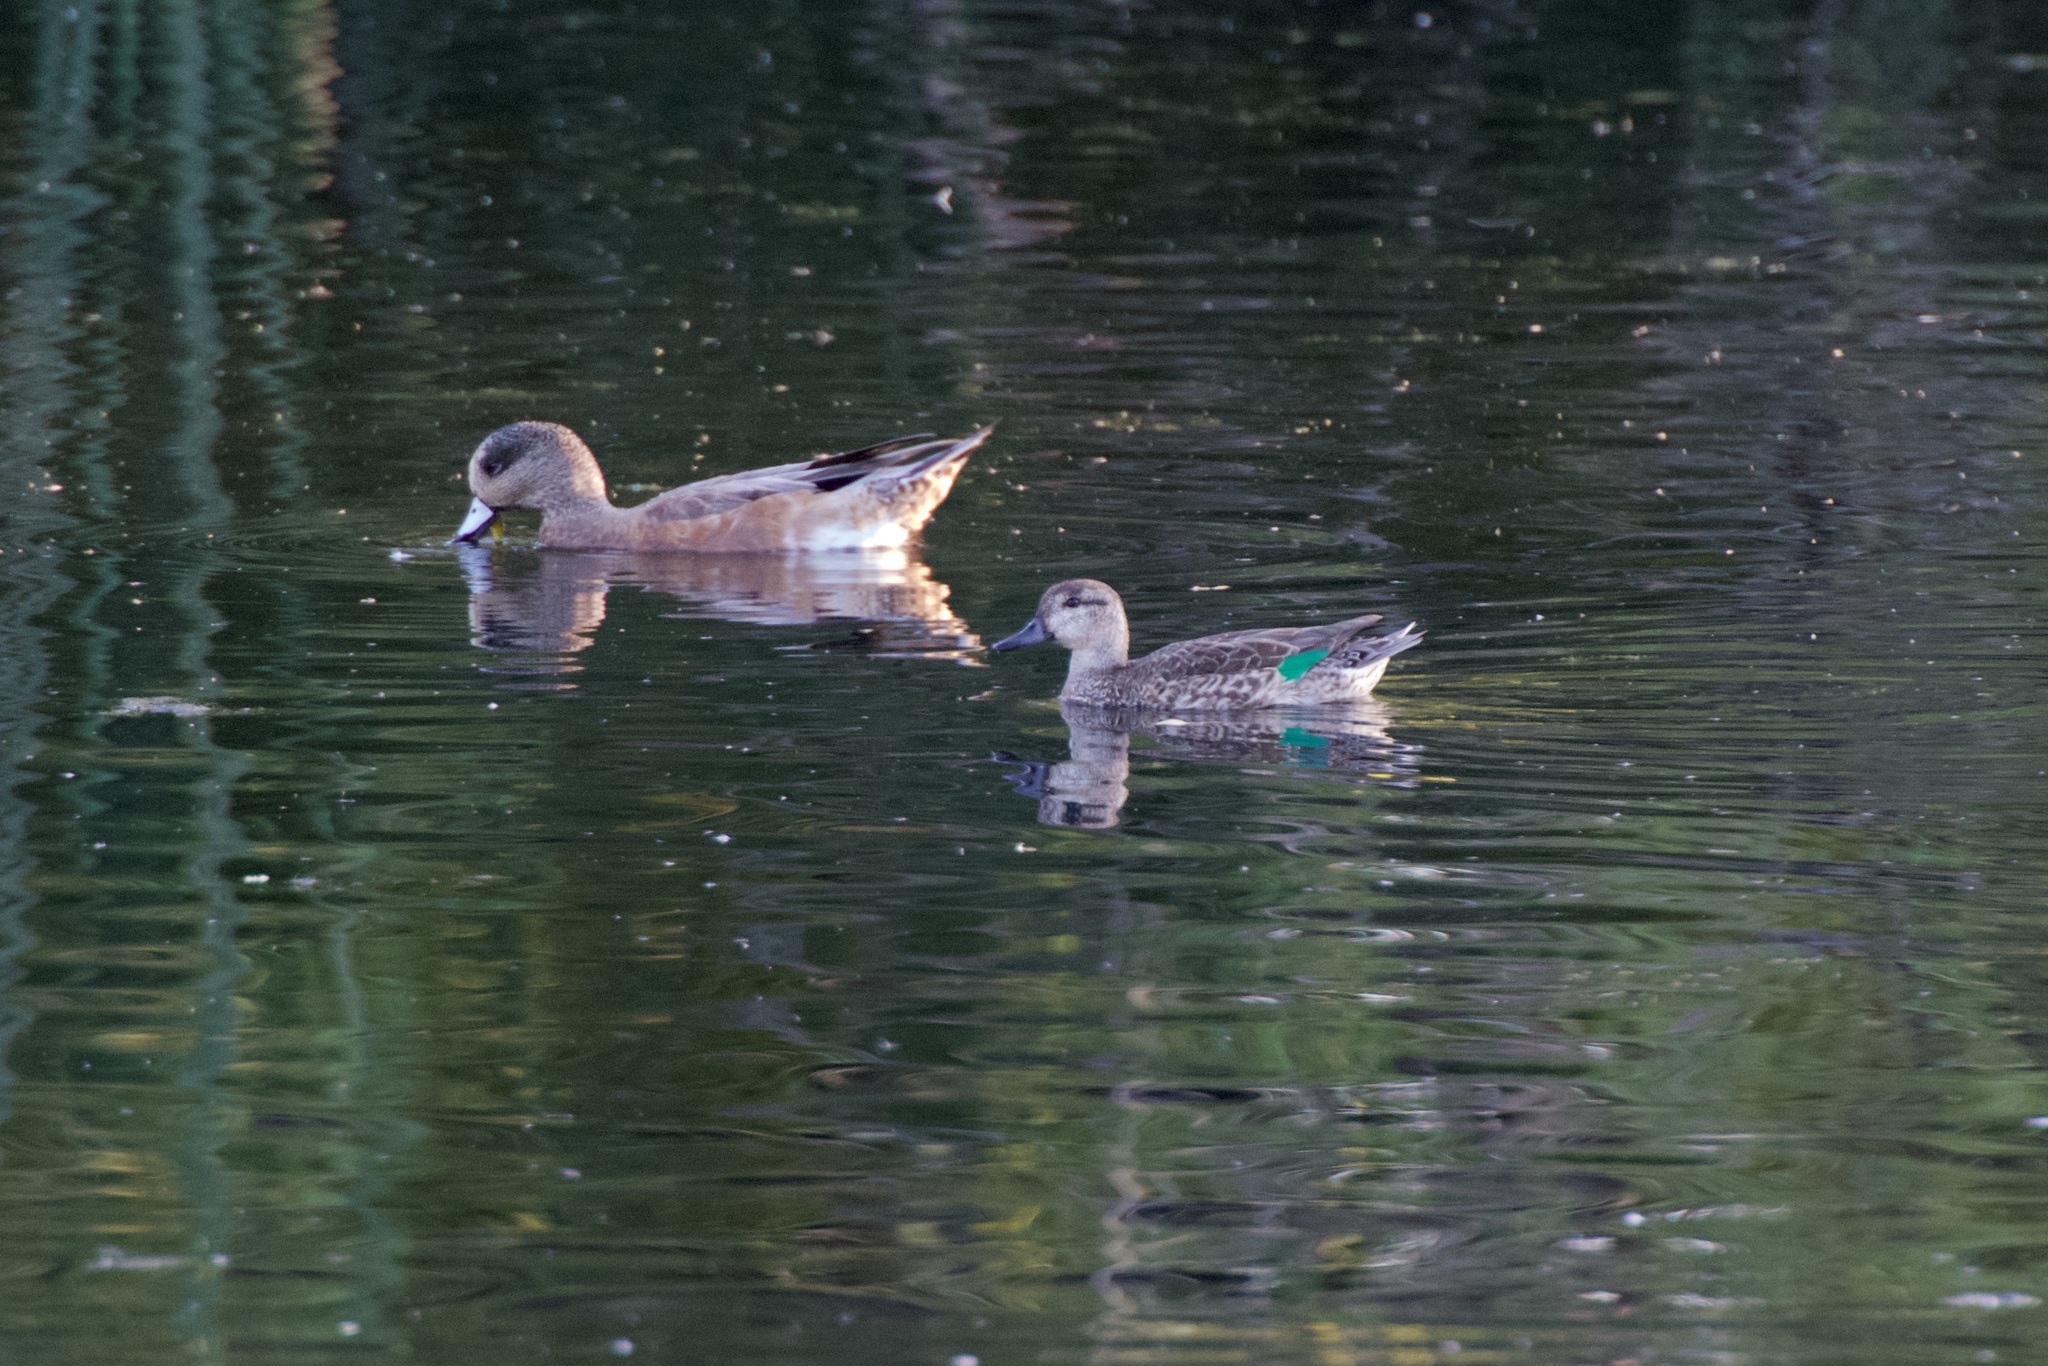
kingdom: Animalia
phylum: Chordata
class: Aves
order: Anseriformes
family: Anatidae
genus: Anas
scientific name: Anas crecca
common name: Eurasian teal
